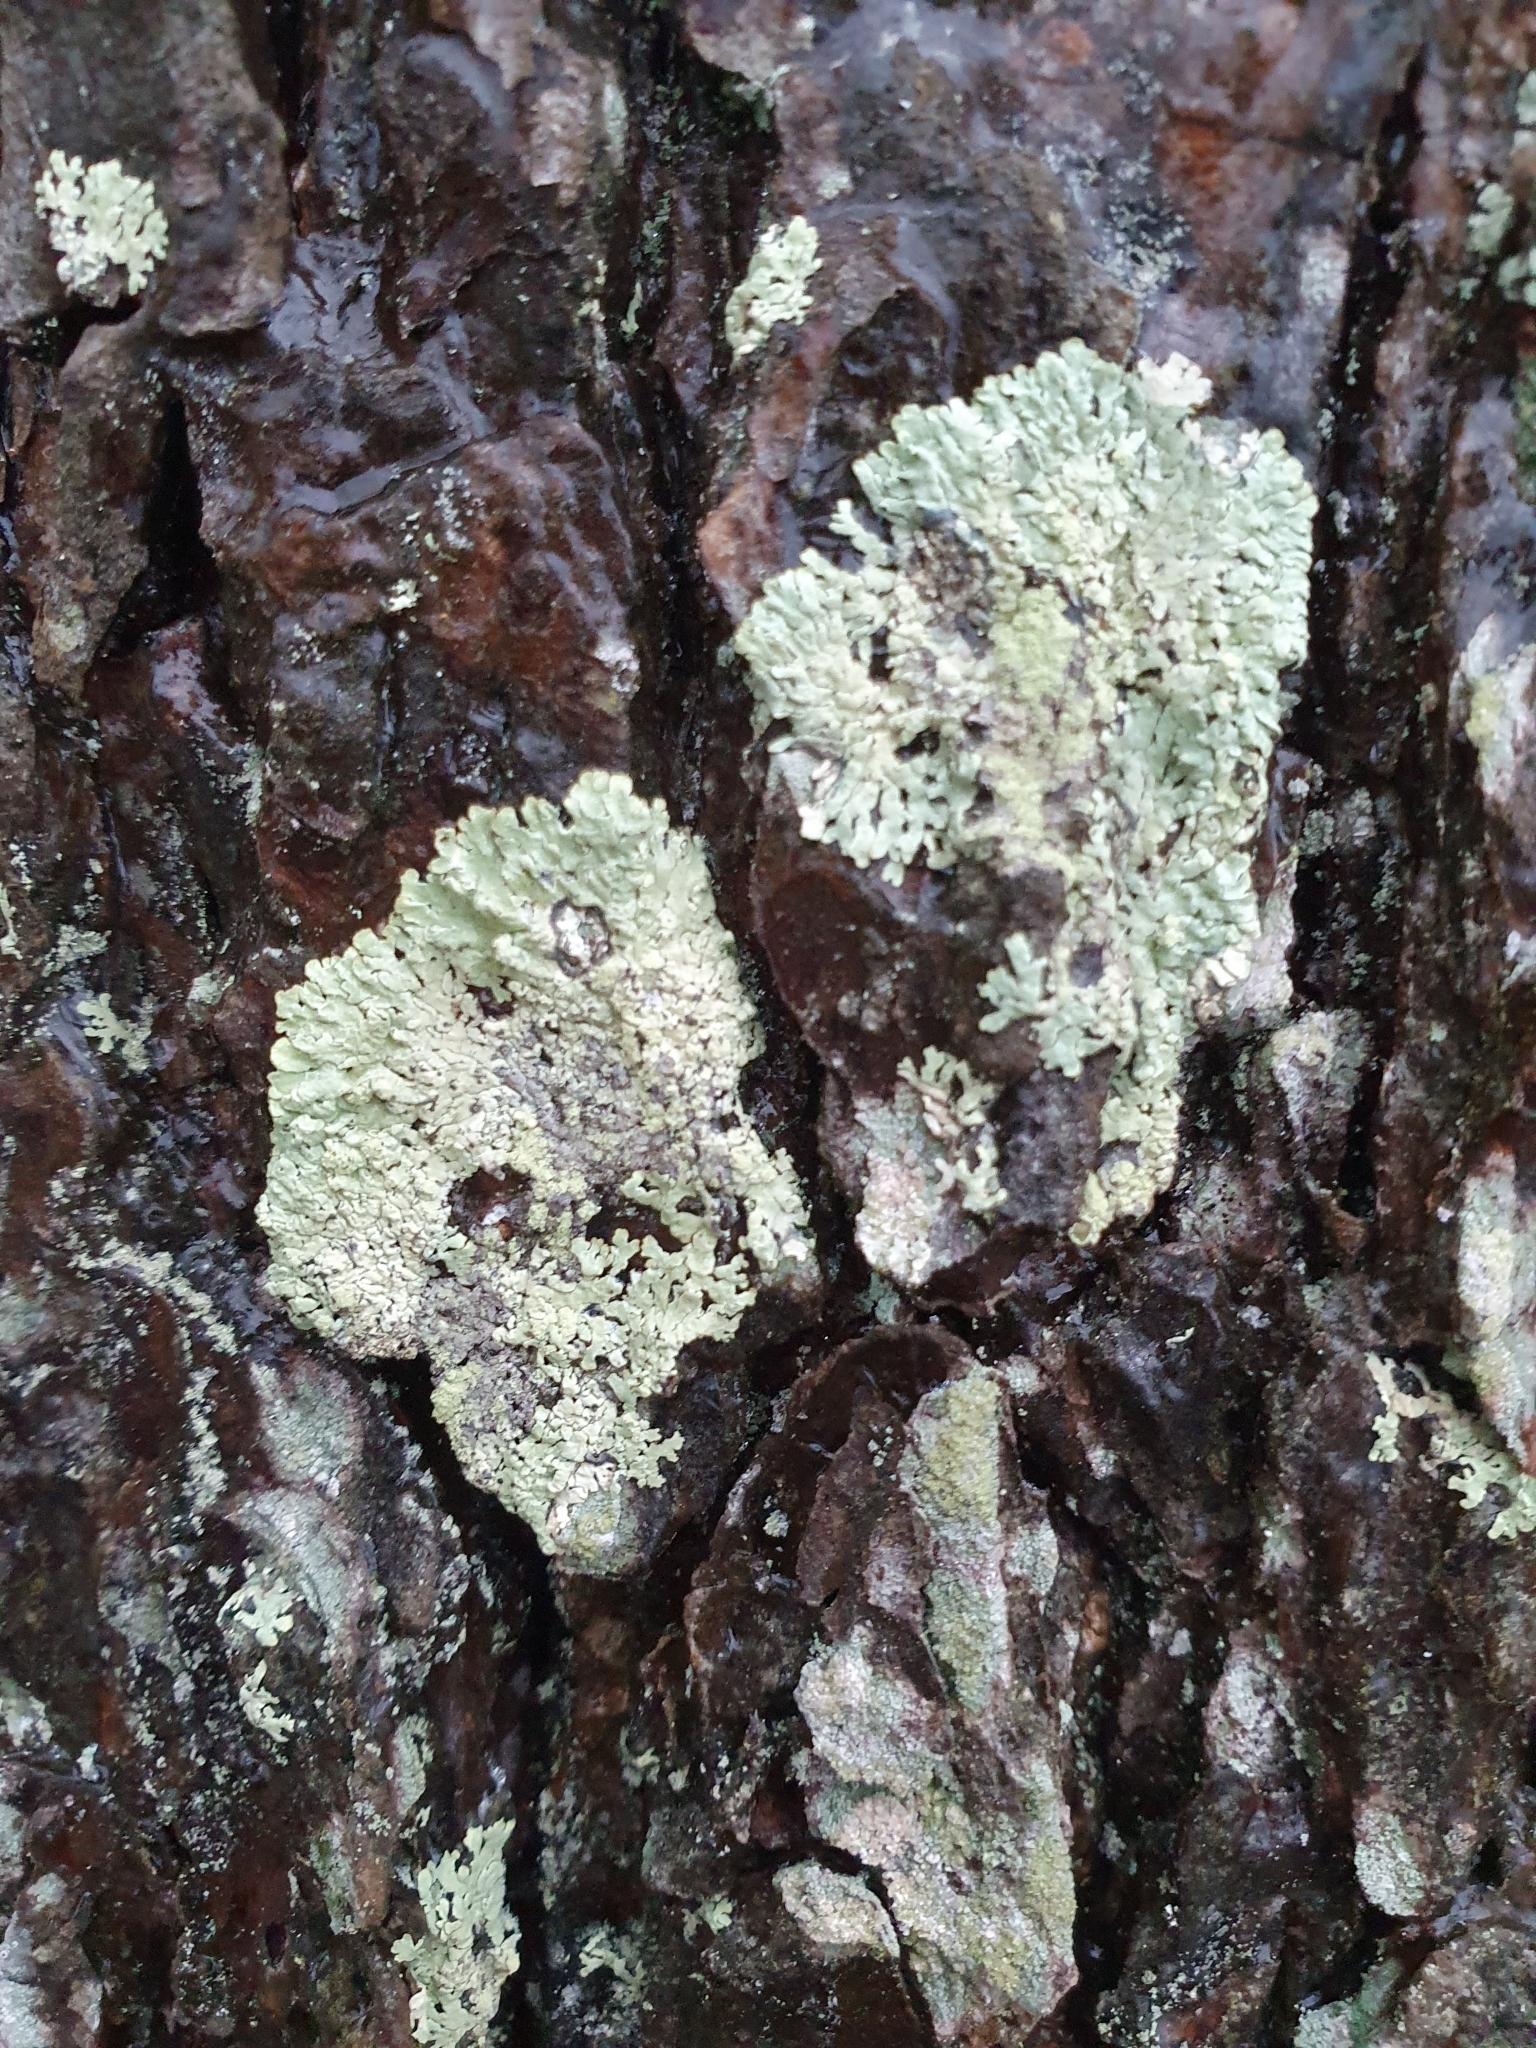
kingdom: Fungi
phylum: Ascomycota
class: Lecanoromycetes
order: Lecanorales
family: Parmeliaceae
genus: Parmeliopsis
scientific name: Parmeliopsis ambigua
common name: Green starburst lichen
